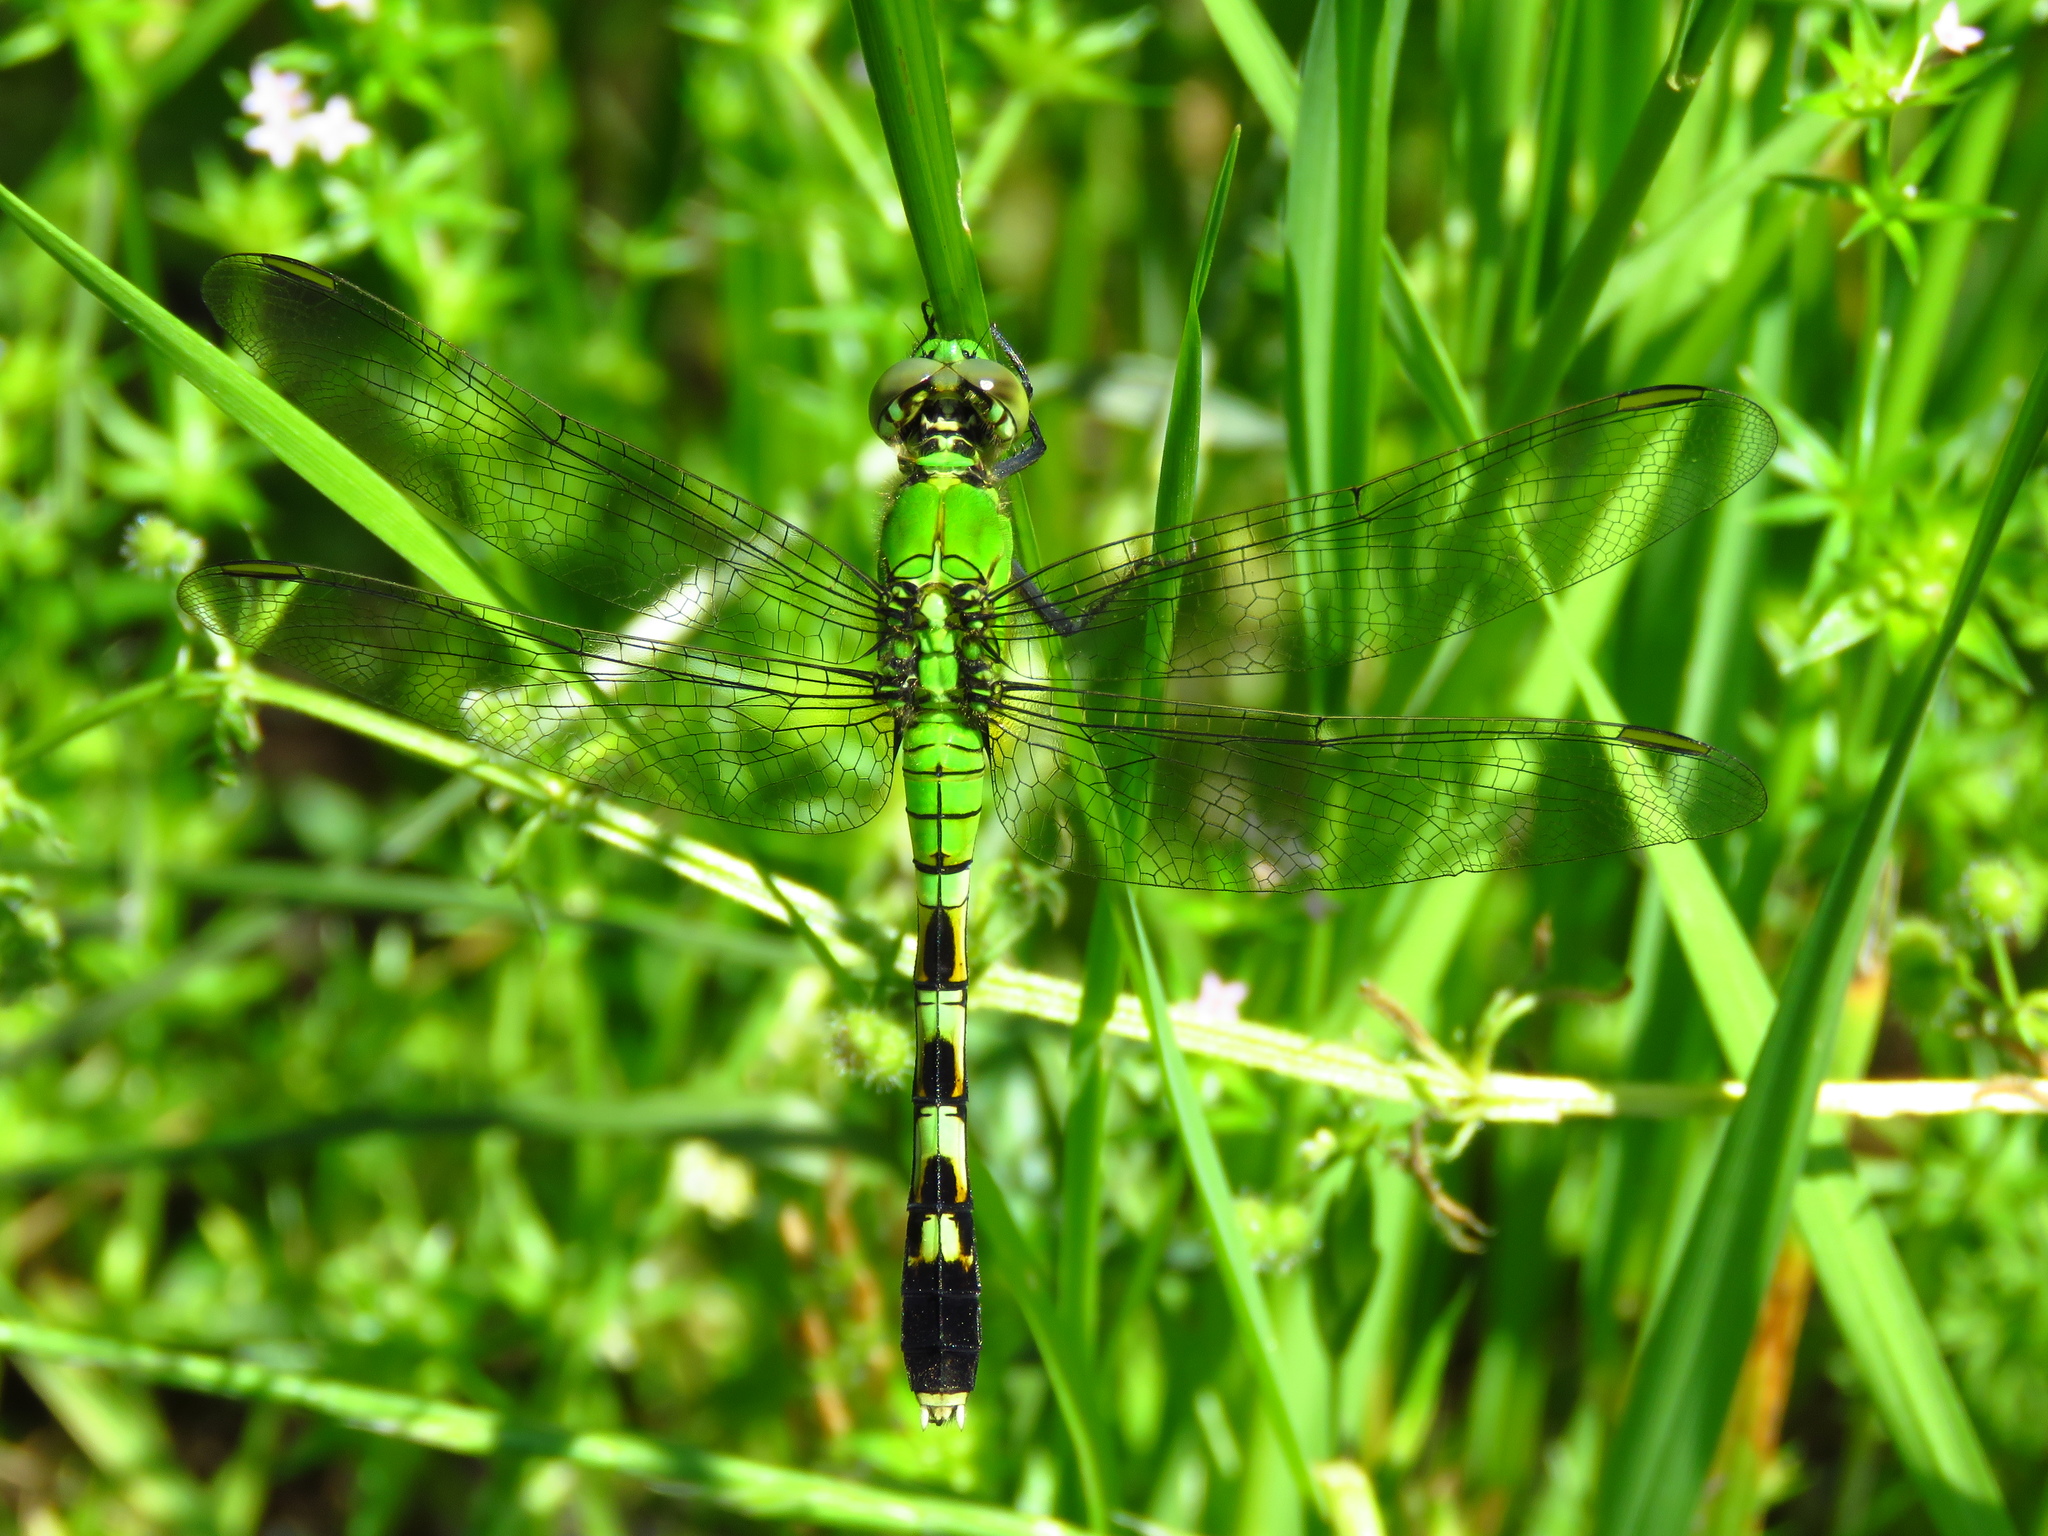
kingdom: Animalia
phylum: Arthropoda
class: Insecta
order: Odonata
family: Libellulidae
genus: Erythemis
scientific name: Erythemis simplicicollis
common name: Eastern pondhawk
